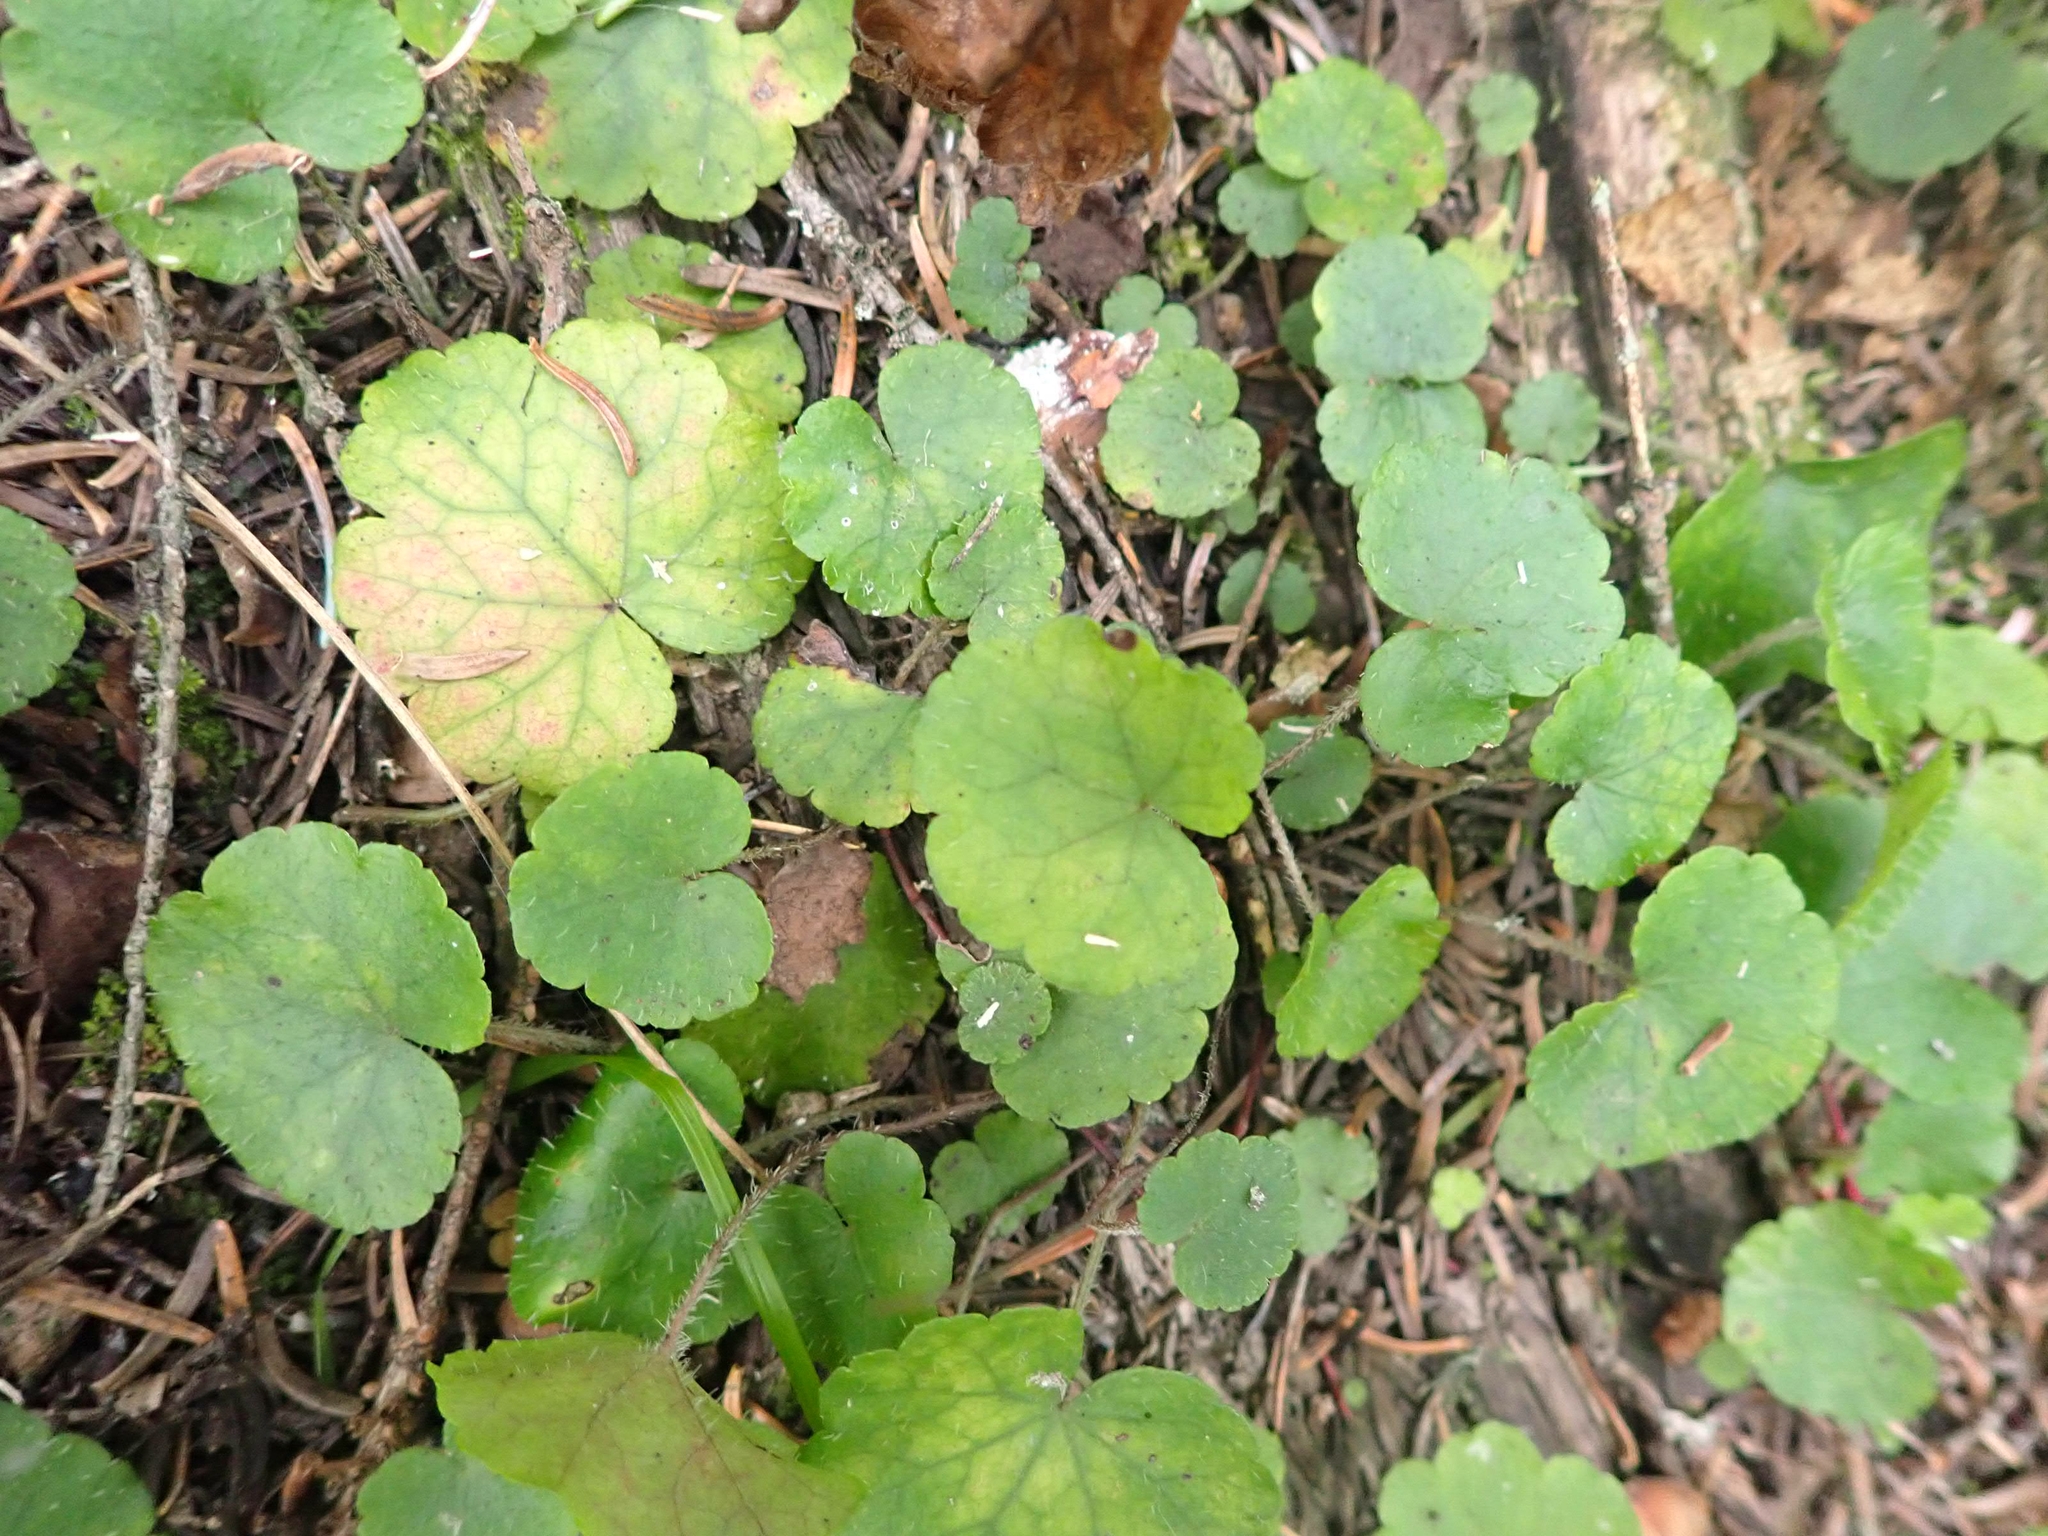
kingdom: Plantae
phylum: Tracheophyta
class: Magnoliopsida
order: Saxifragales
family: Saxifragaceae
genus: Mitella
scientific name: Mitella nuda
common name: Bare-stemmed bishop's-cap
